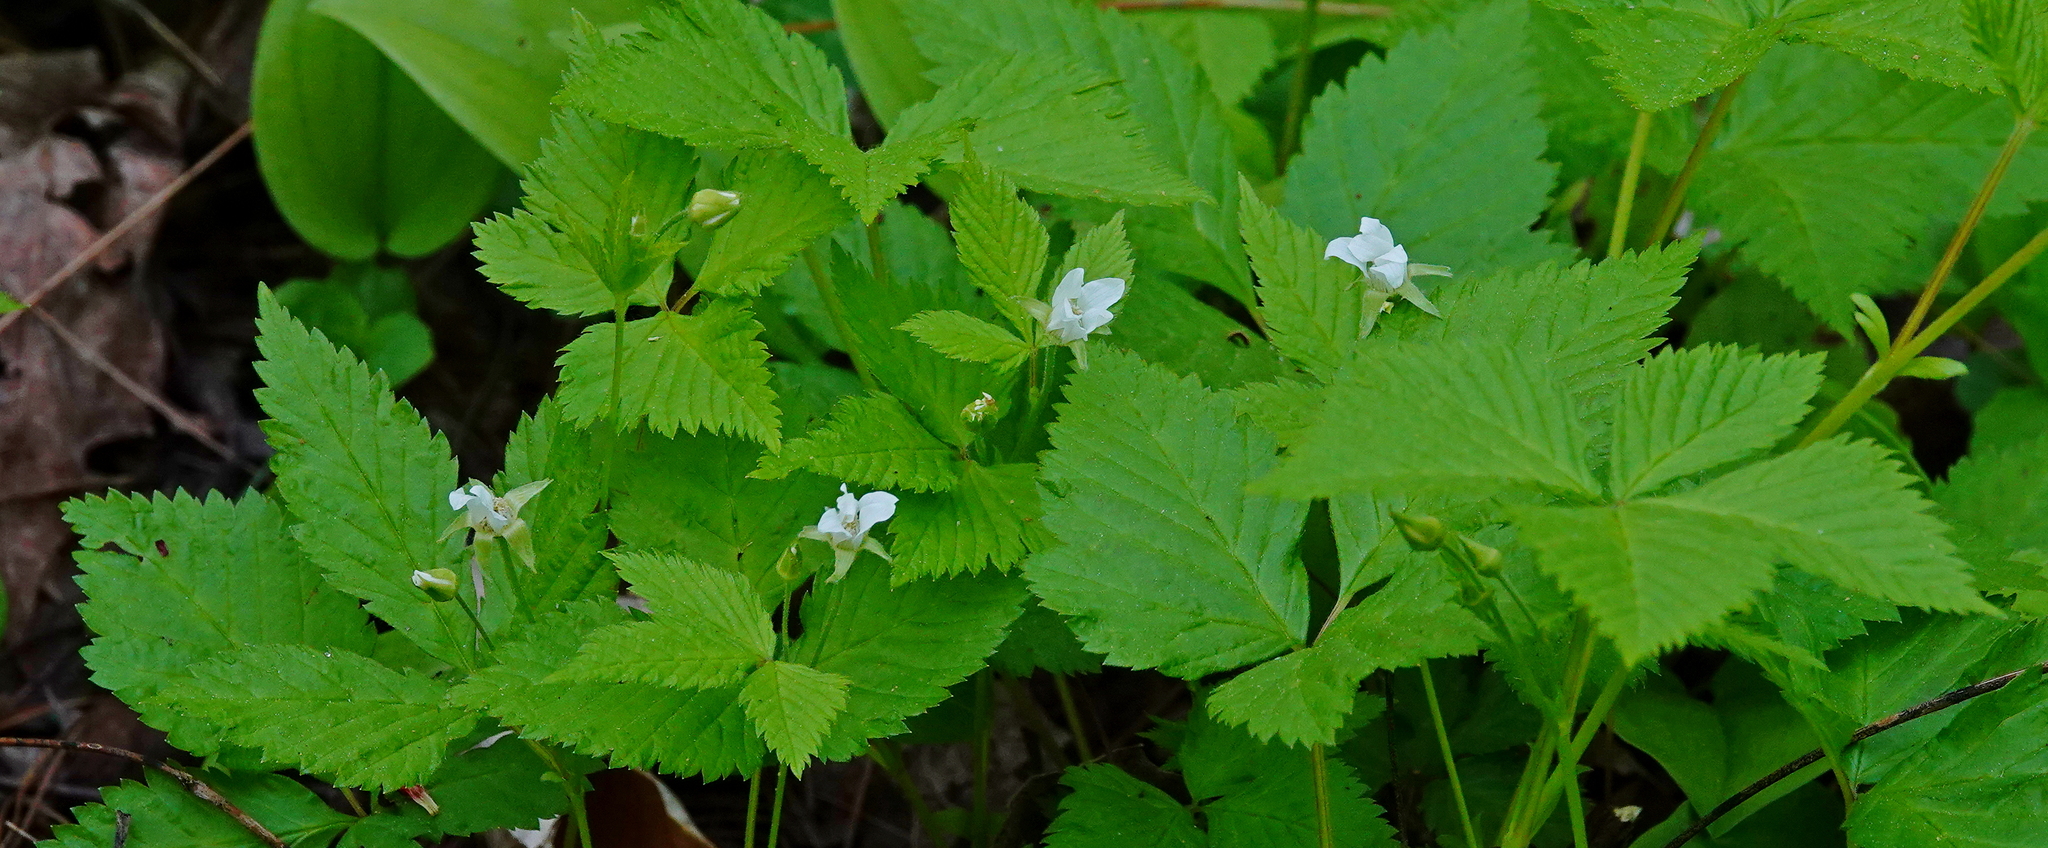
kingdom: Plantae
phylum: Tracheophyta
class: Magnoliopsida
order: Rosales
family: Rosaceae
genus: Rubus
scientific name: Rubus pubescens
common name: Dwarf raspberry
